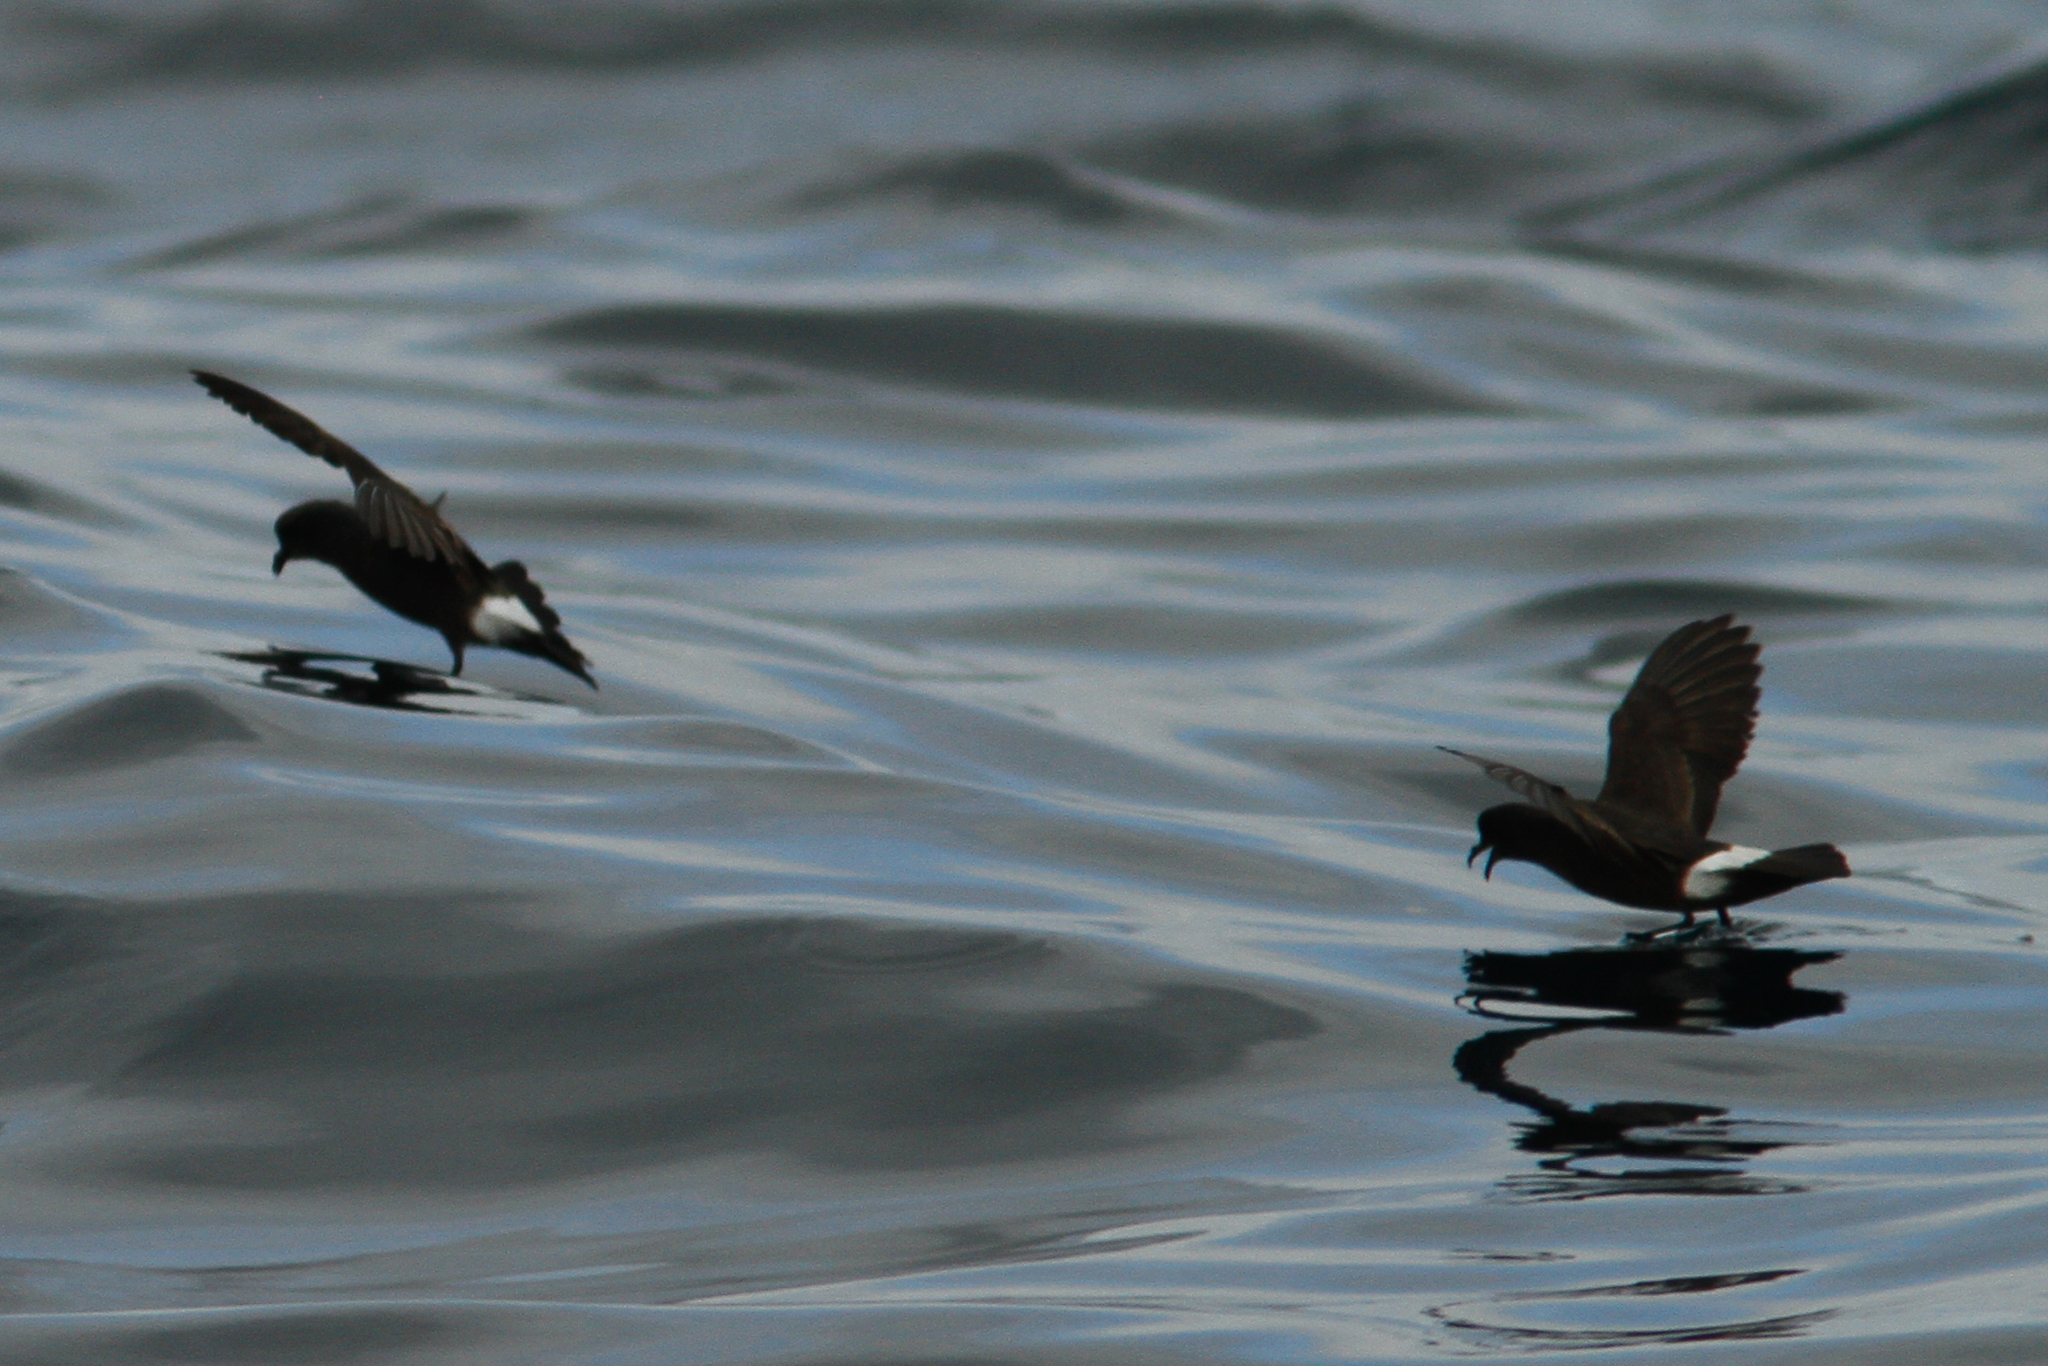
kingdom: Animalia
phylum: Chordata
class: Aves
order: Procellariiformes
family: Hydrobatidae
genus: Hydrobates
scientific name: Hydrobates pelagicus
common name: European storm-petrel
